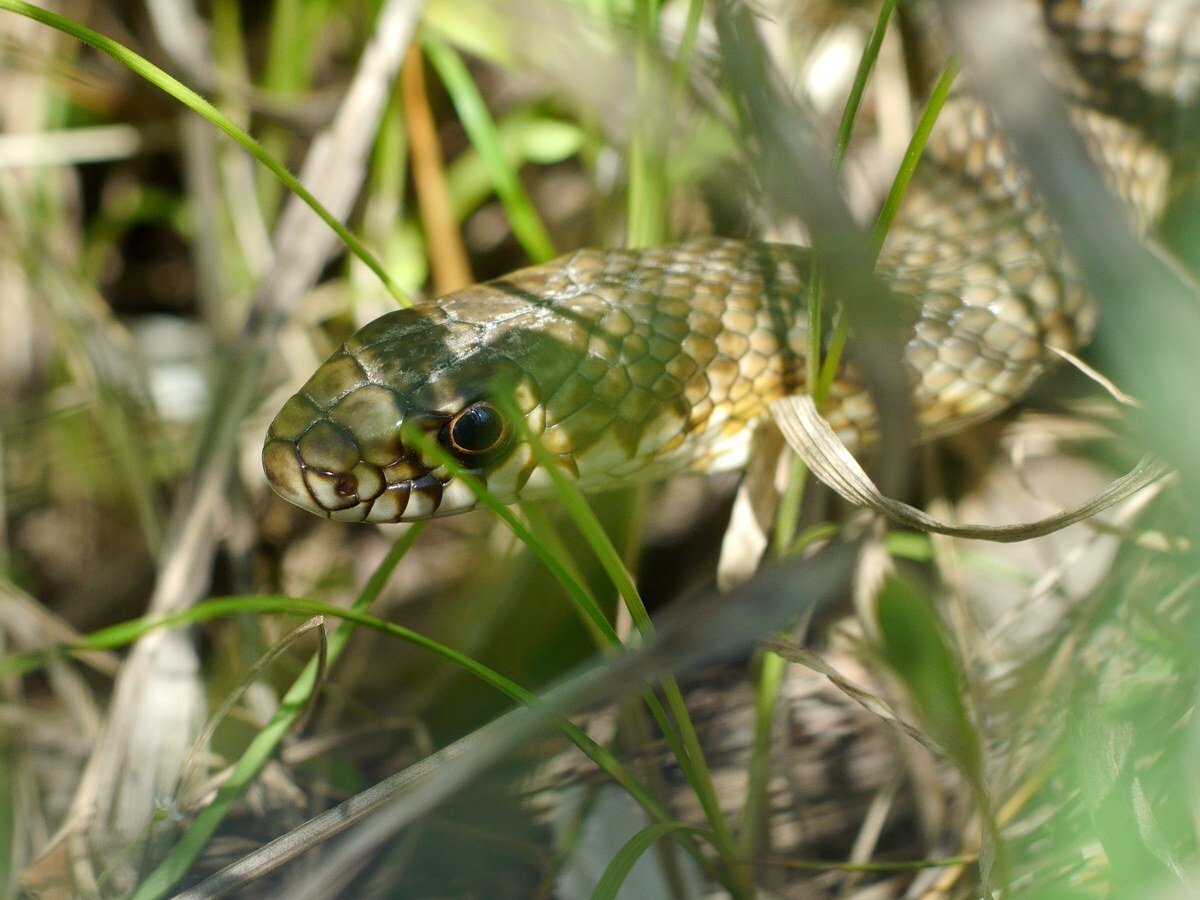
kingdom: Animalia
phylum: Chordata
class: Squamata
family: Colubridae
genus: Dolichophis
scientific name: Dolichophis caspius
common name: Large whip snake
